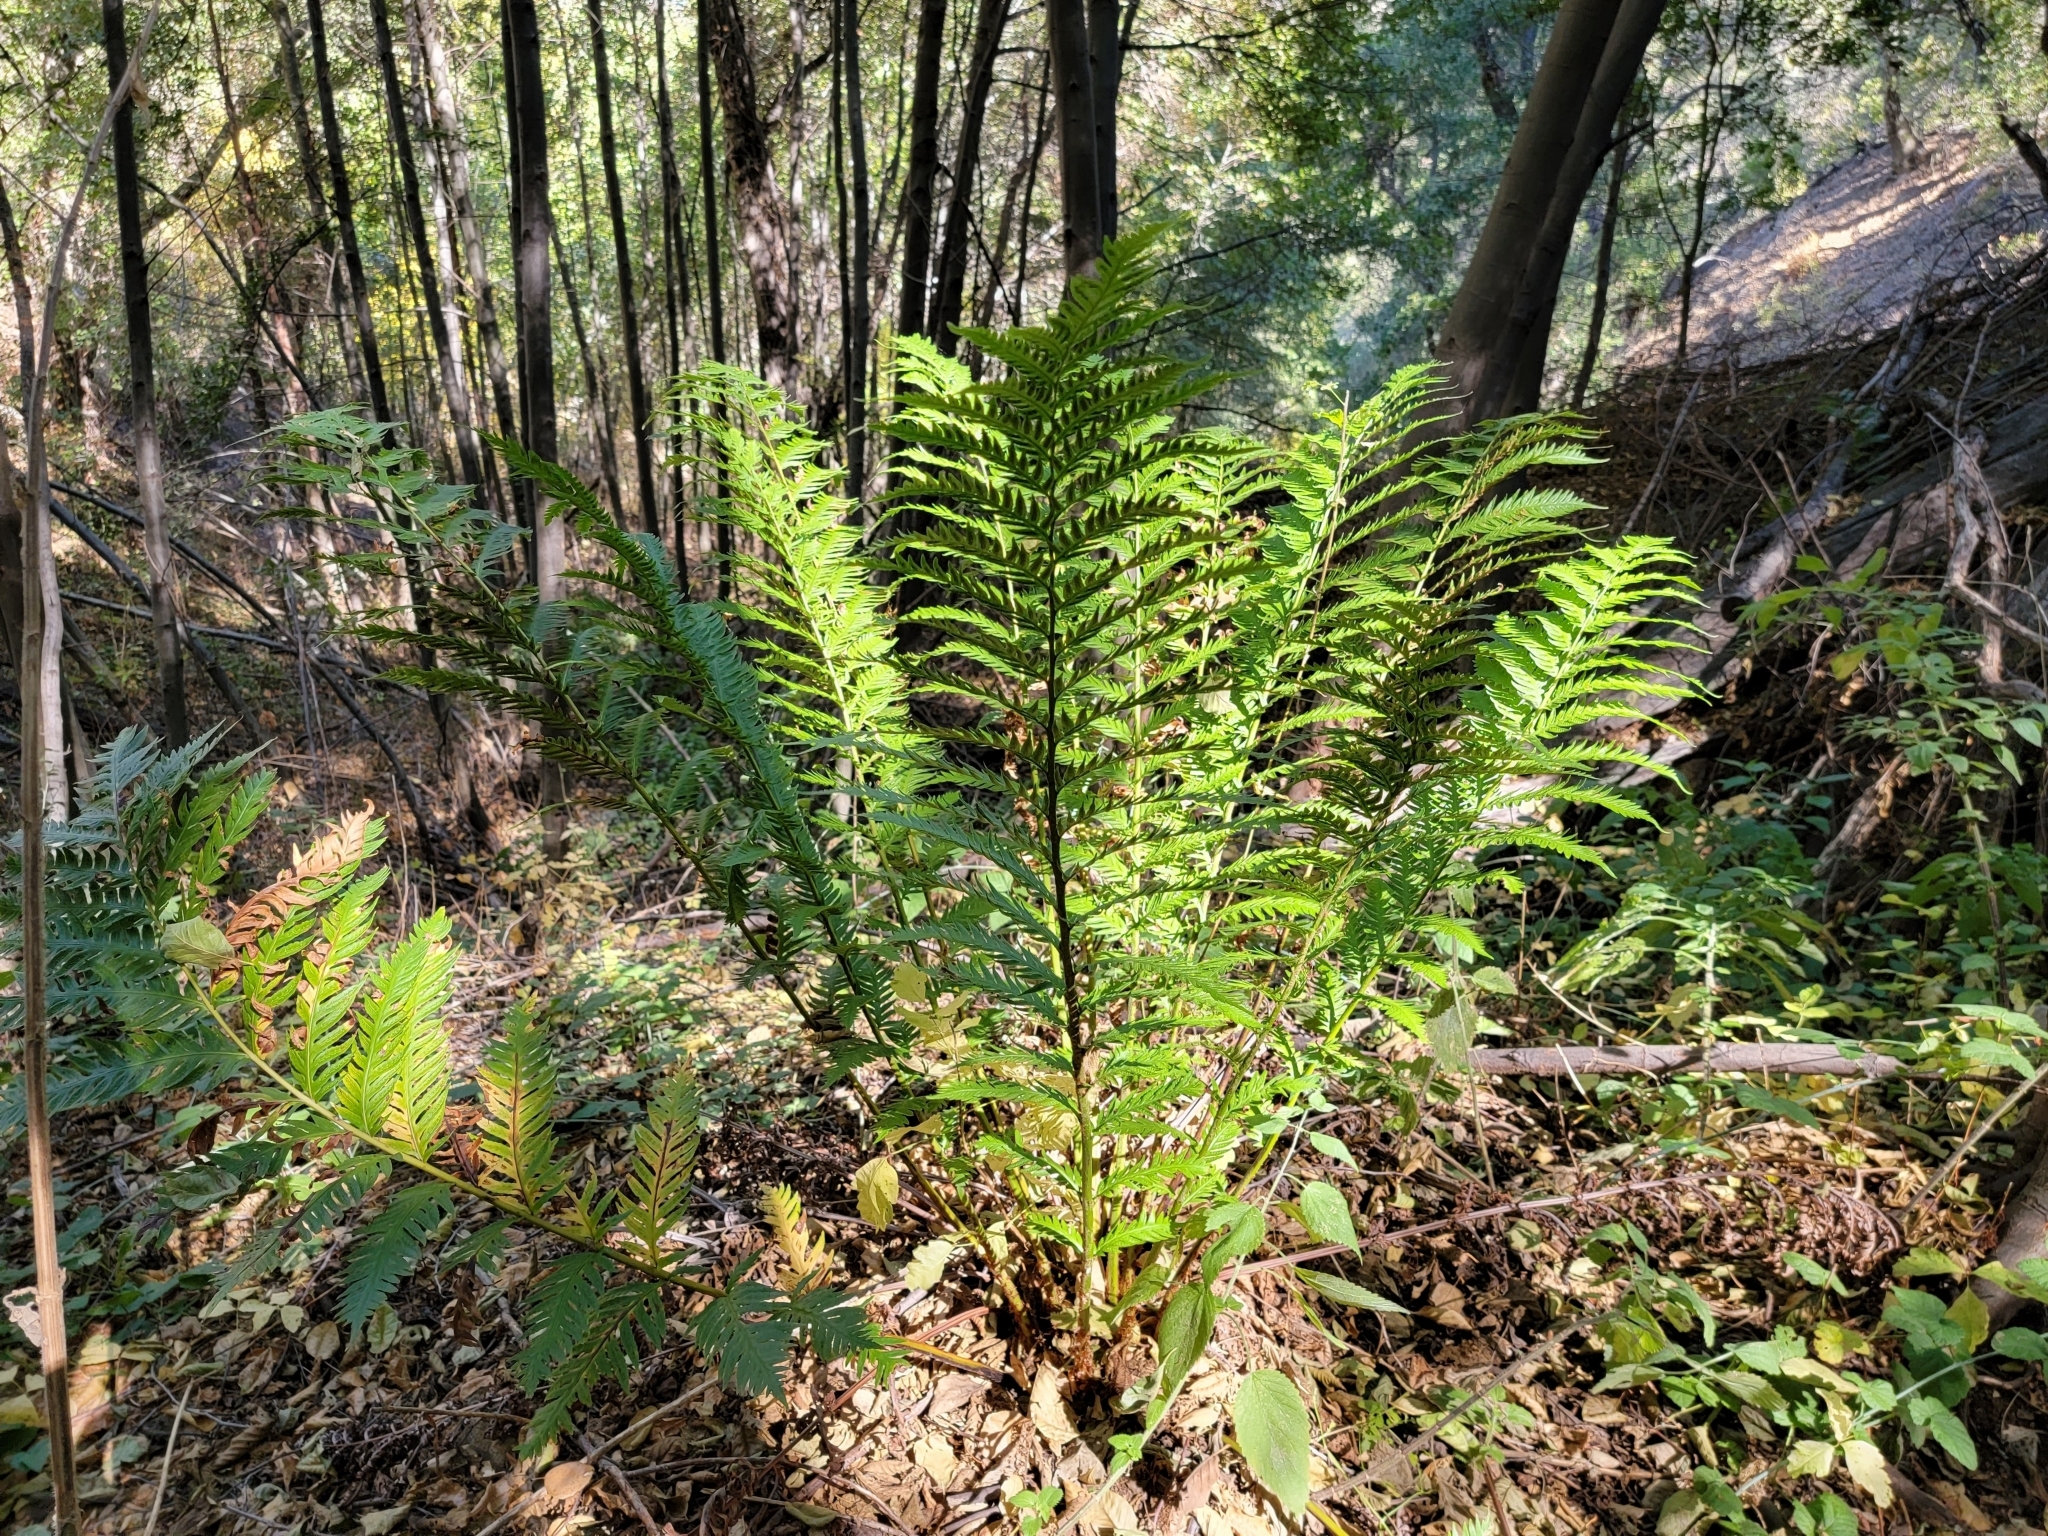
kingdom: Plantae
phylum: Tracheophyta
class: Polypodiopsida
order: Polypodiales
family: Blechnaceae
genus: Woodwardia
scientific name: Woodwardia fimbriata
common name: Giant chain fern
